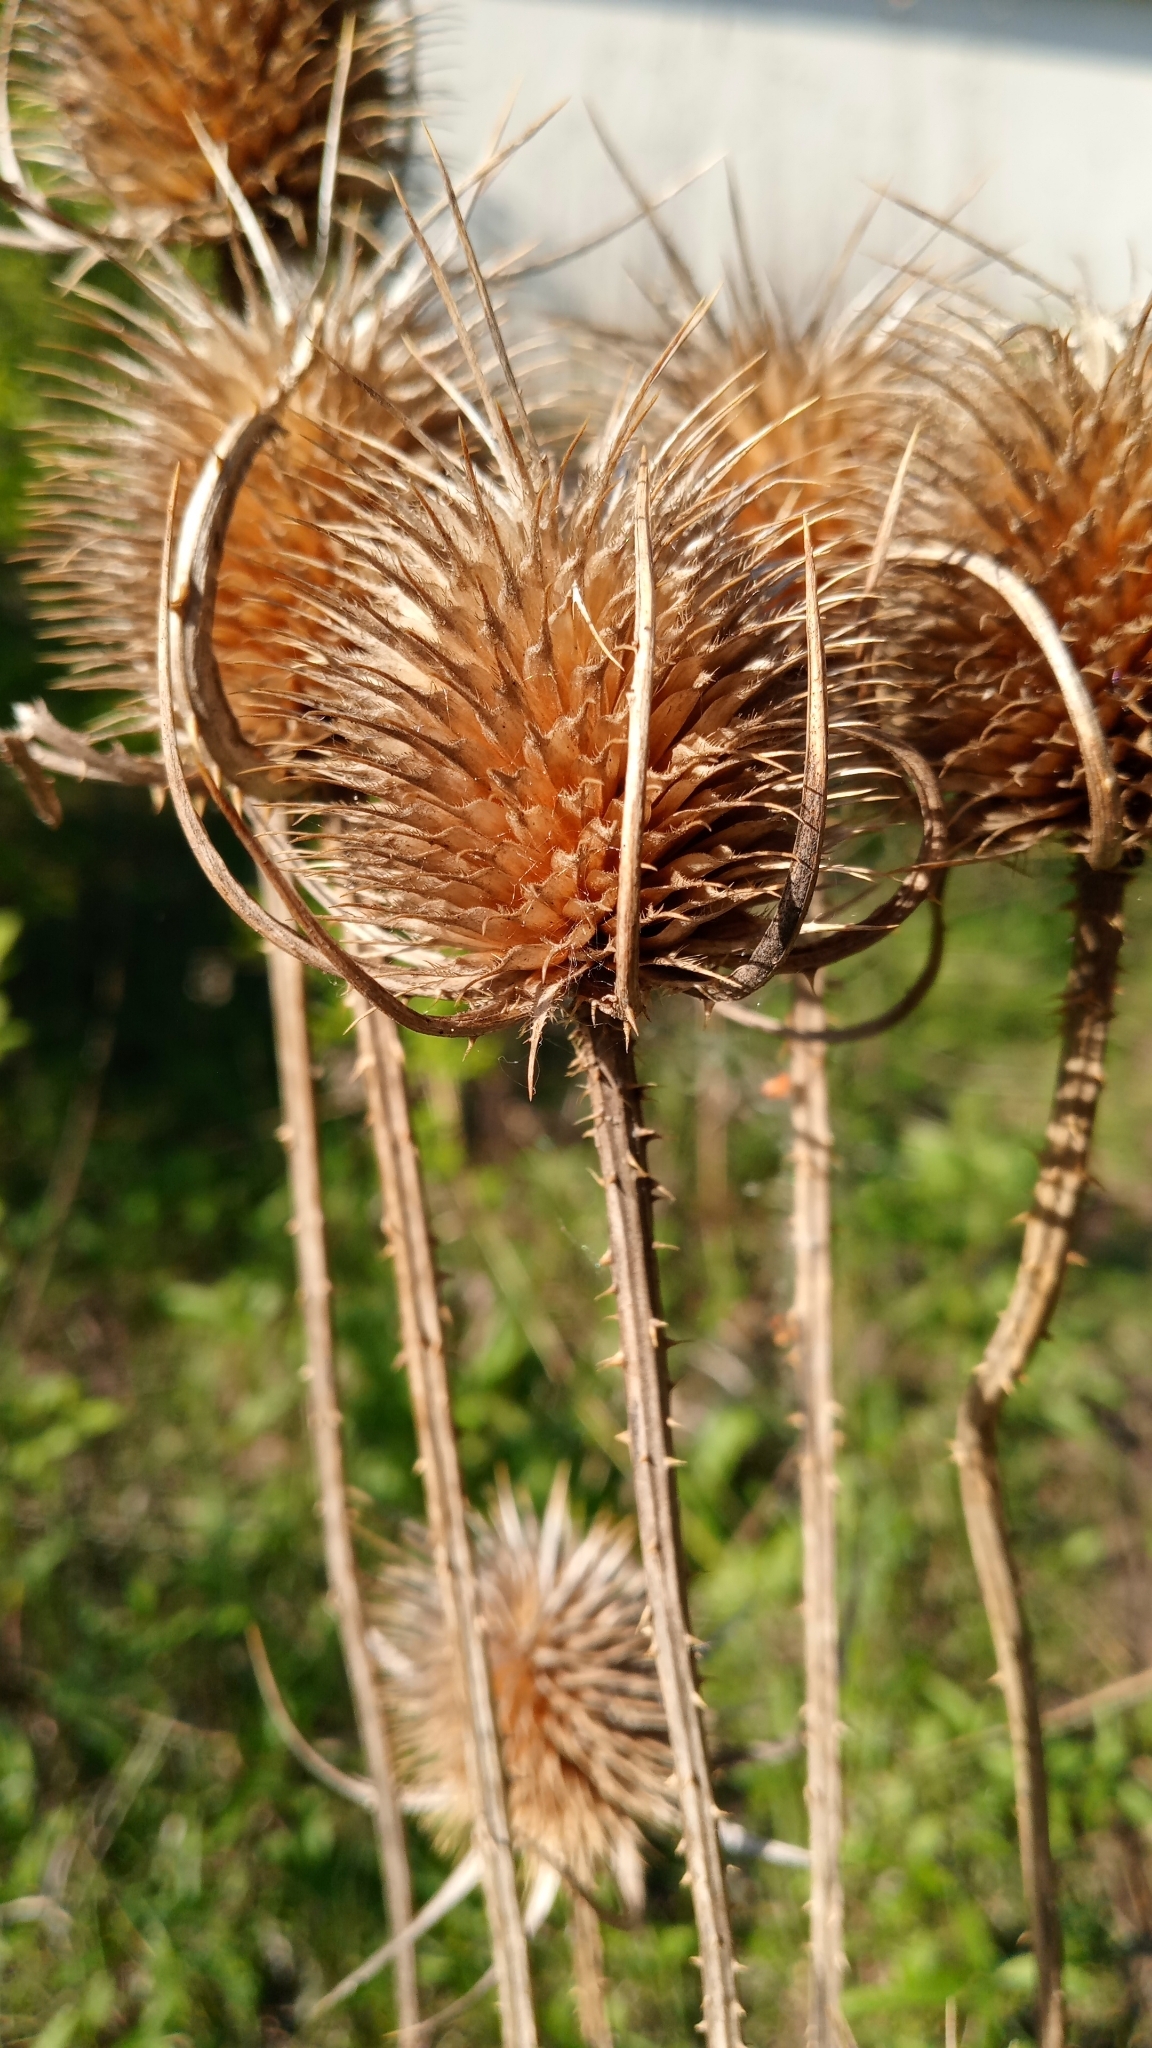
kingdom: Plantae
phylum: Tracheophyta
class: Magnoliopsida
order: Dipsacales
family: Caprifoliaceae
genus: Dipsacus
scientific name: Dipsacus fullonum
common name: Teasel
